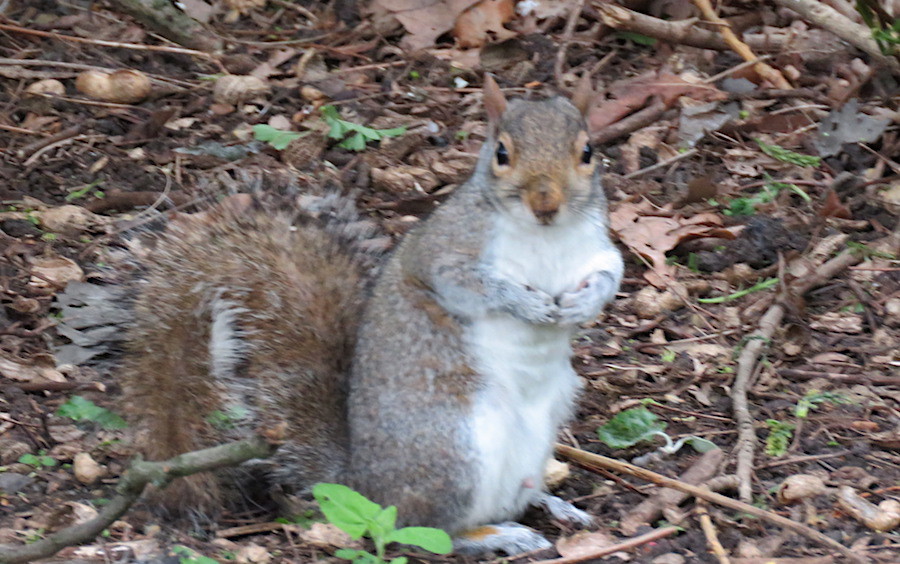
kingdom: Animalia
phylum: Chordata
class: Mammalia
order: Rodentia
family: Sciuridae
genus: Sciurus
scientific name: Sciurus carolinensis
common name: Eastern gray squirrel
